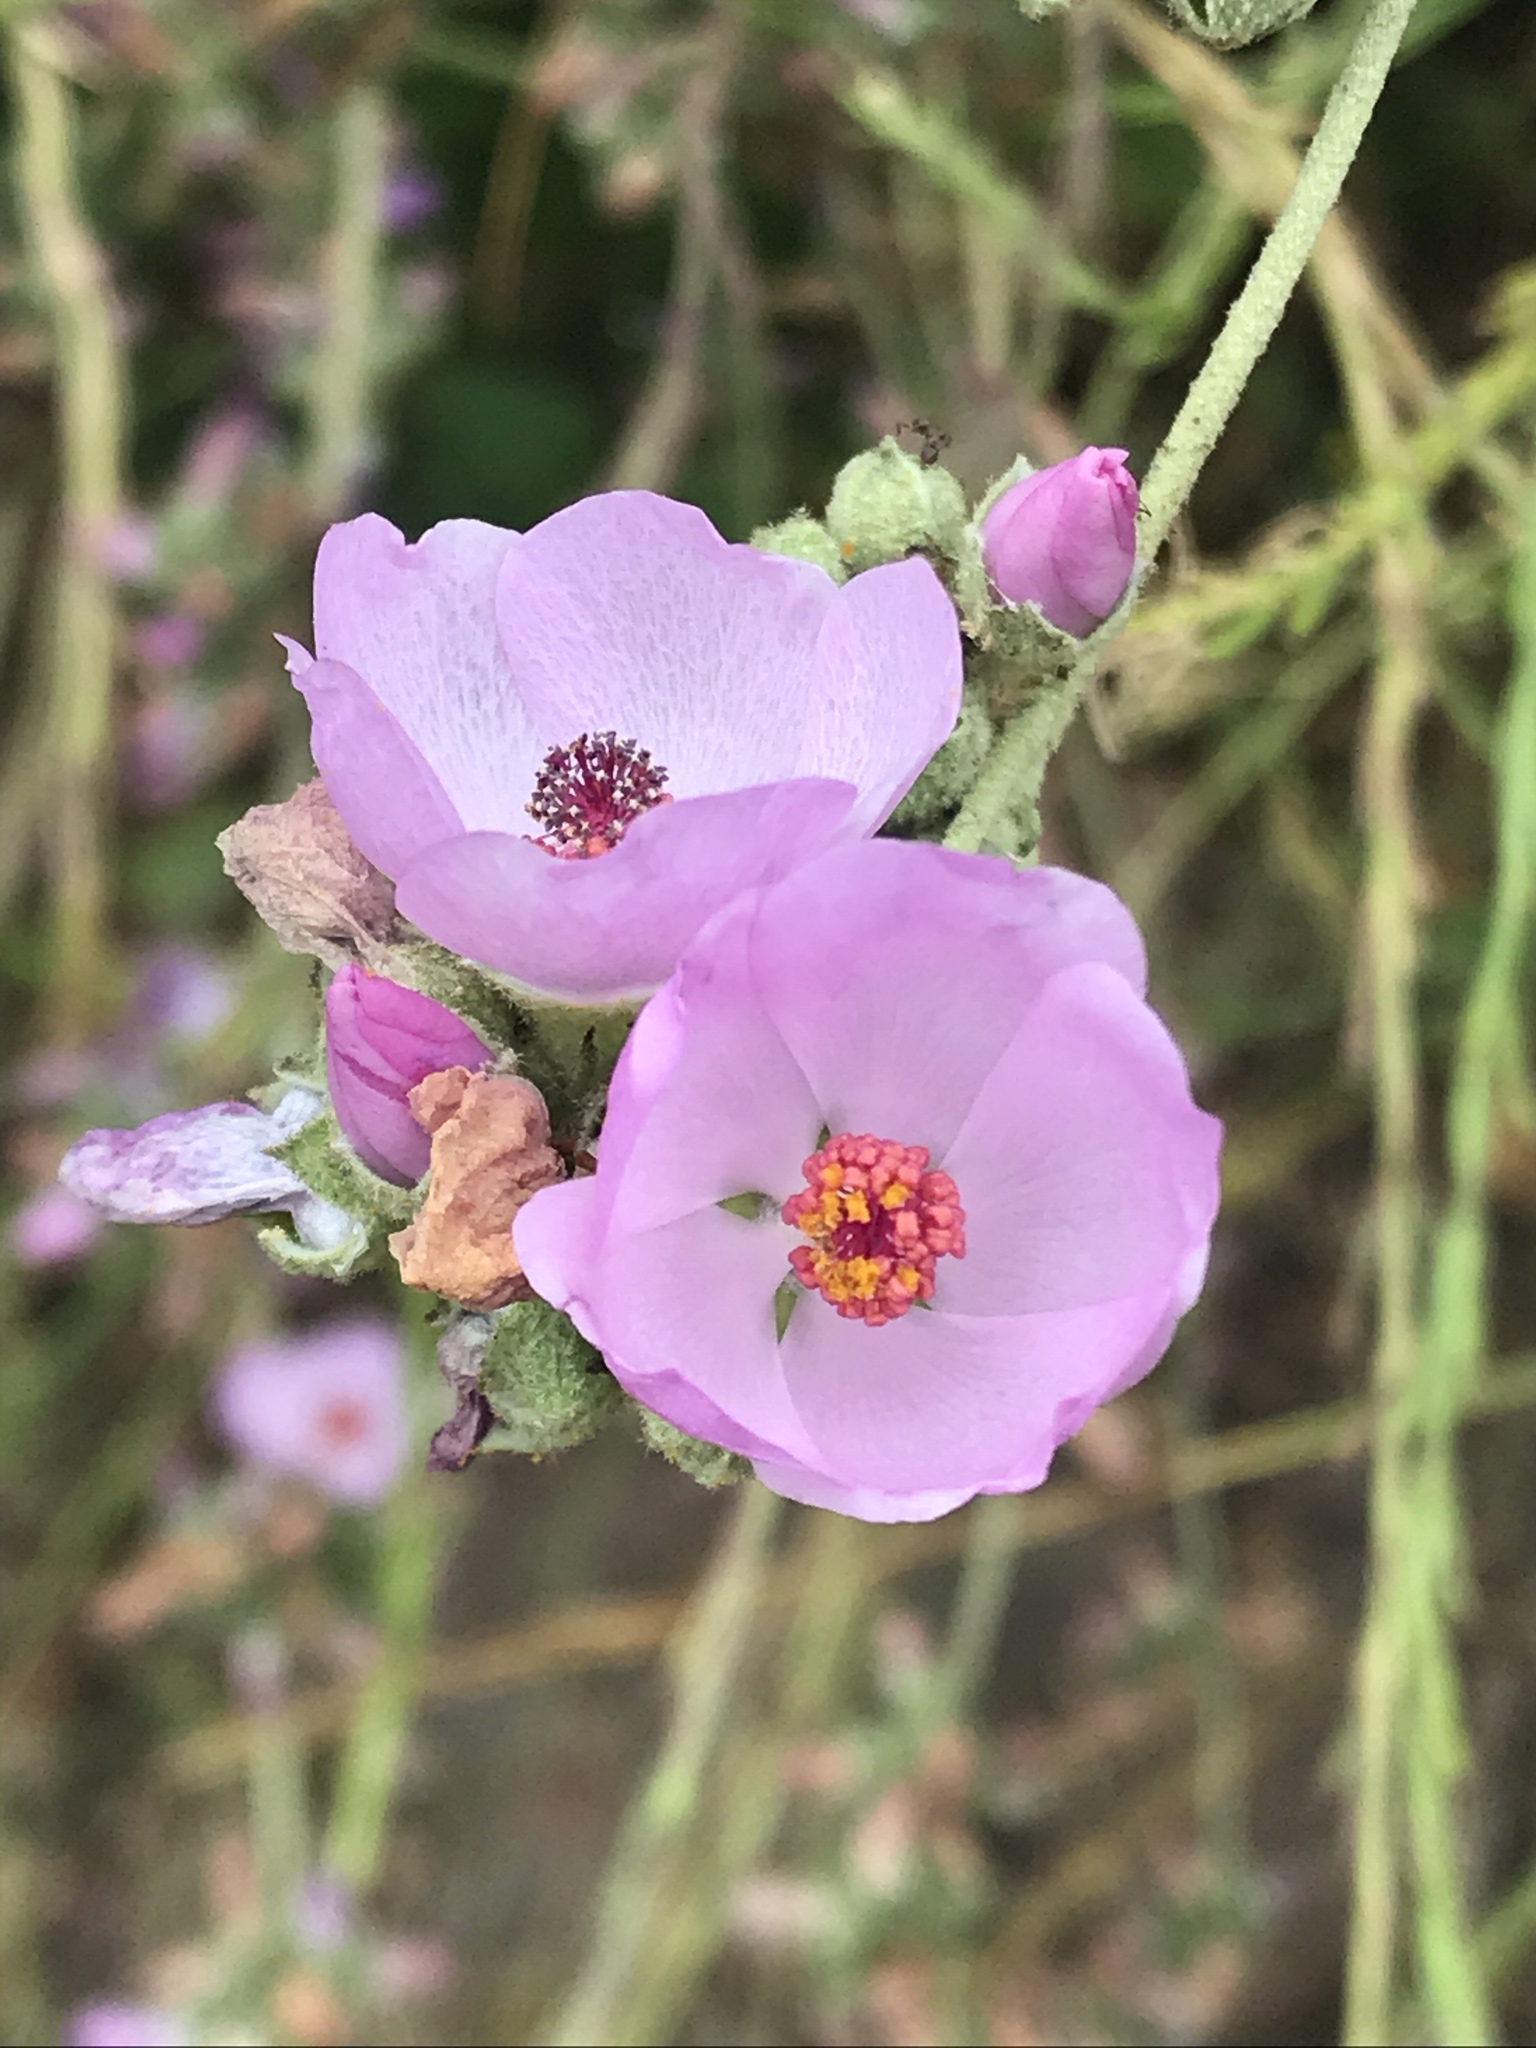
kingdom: Plantae
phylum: Tracheophyta
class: Magnoliopsida
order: Malvales
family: Malvaceae
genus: Malacothamnus
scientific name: Malacothamnus fasciculatus
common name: Sant cruz island bush-mallow
